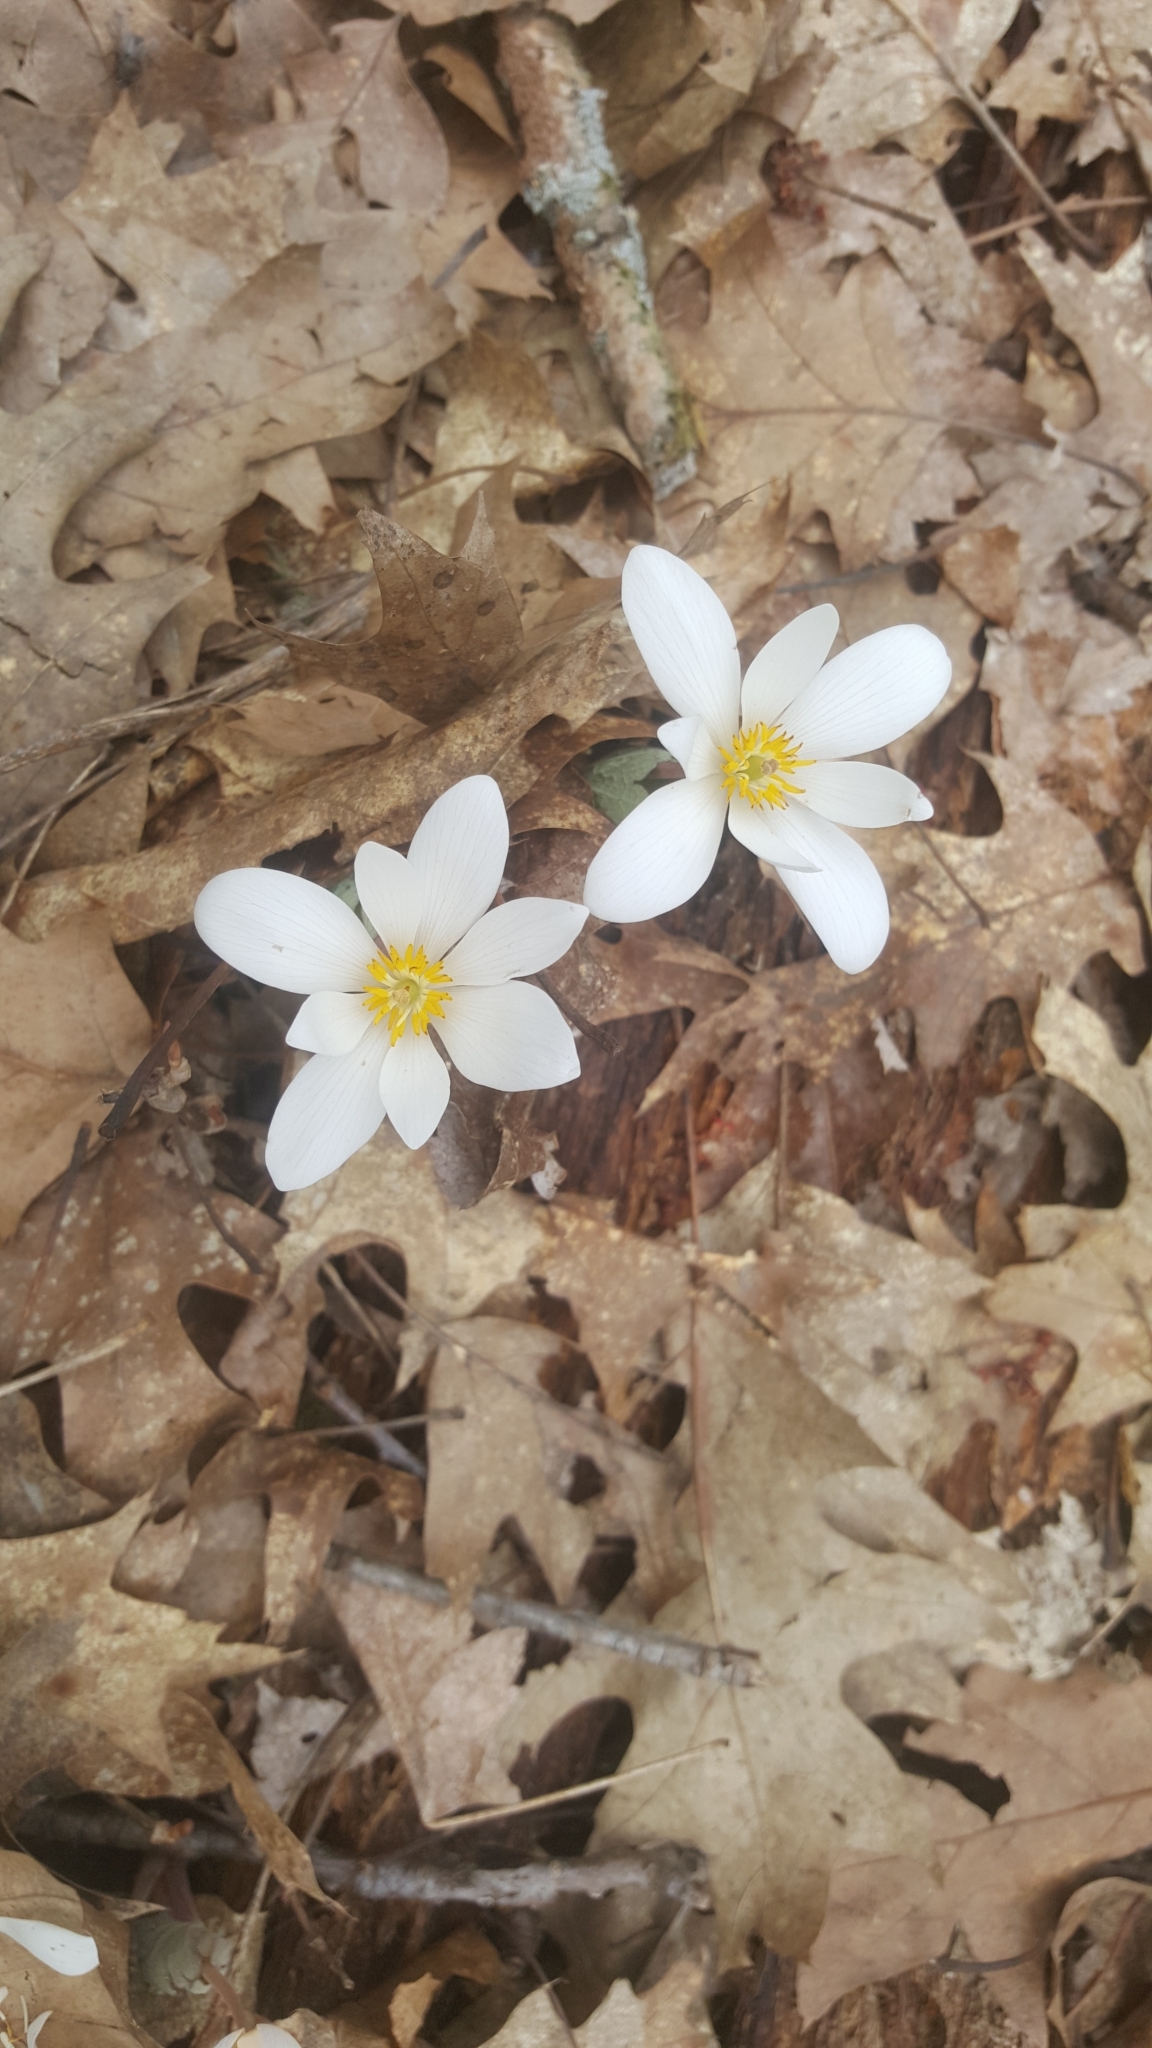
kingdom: Plantae
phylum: Tracheophyta
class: Magnoliopsida
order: Ranunculales
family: Papaveraceae
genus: Sanguinaria
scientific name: Sanguinaria canadensis
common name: Bloodroot
